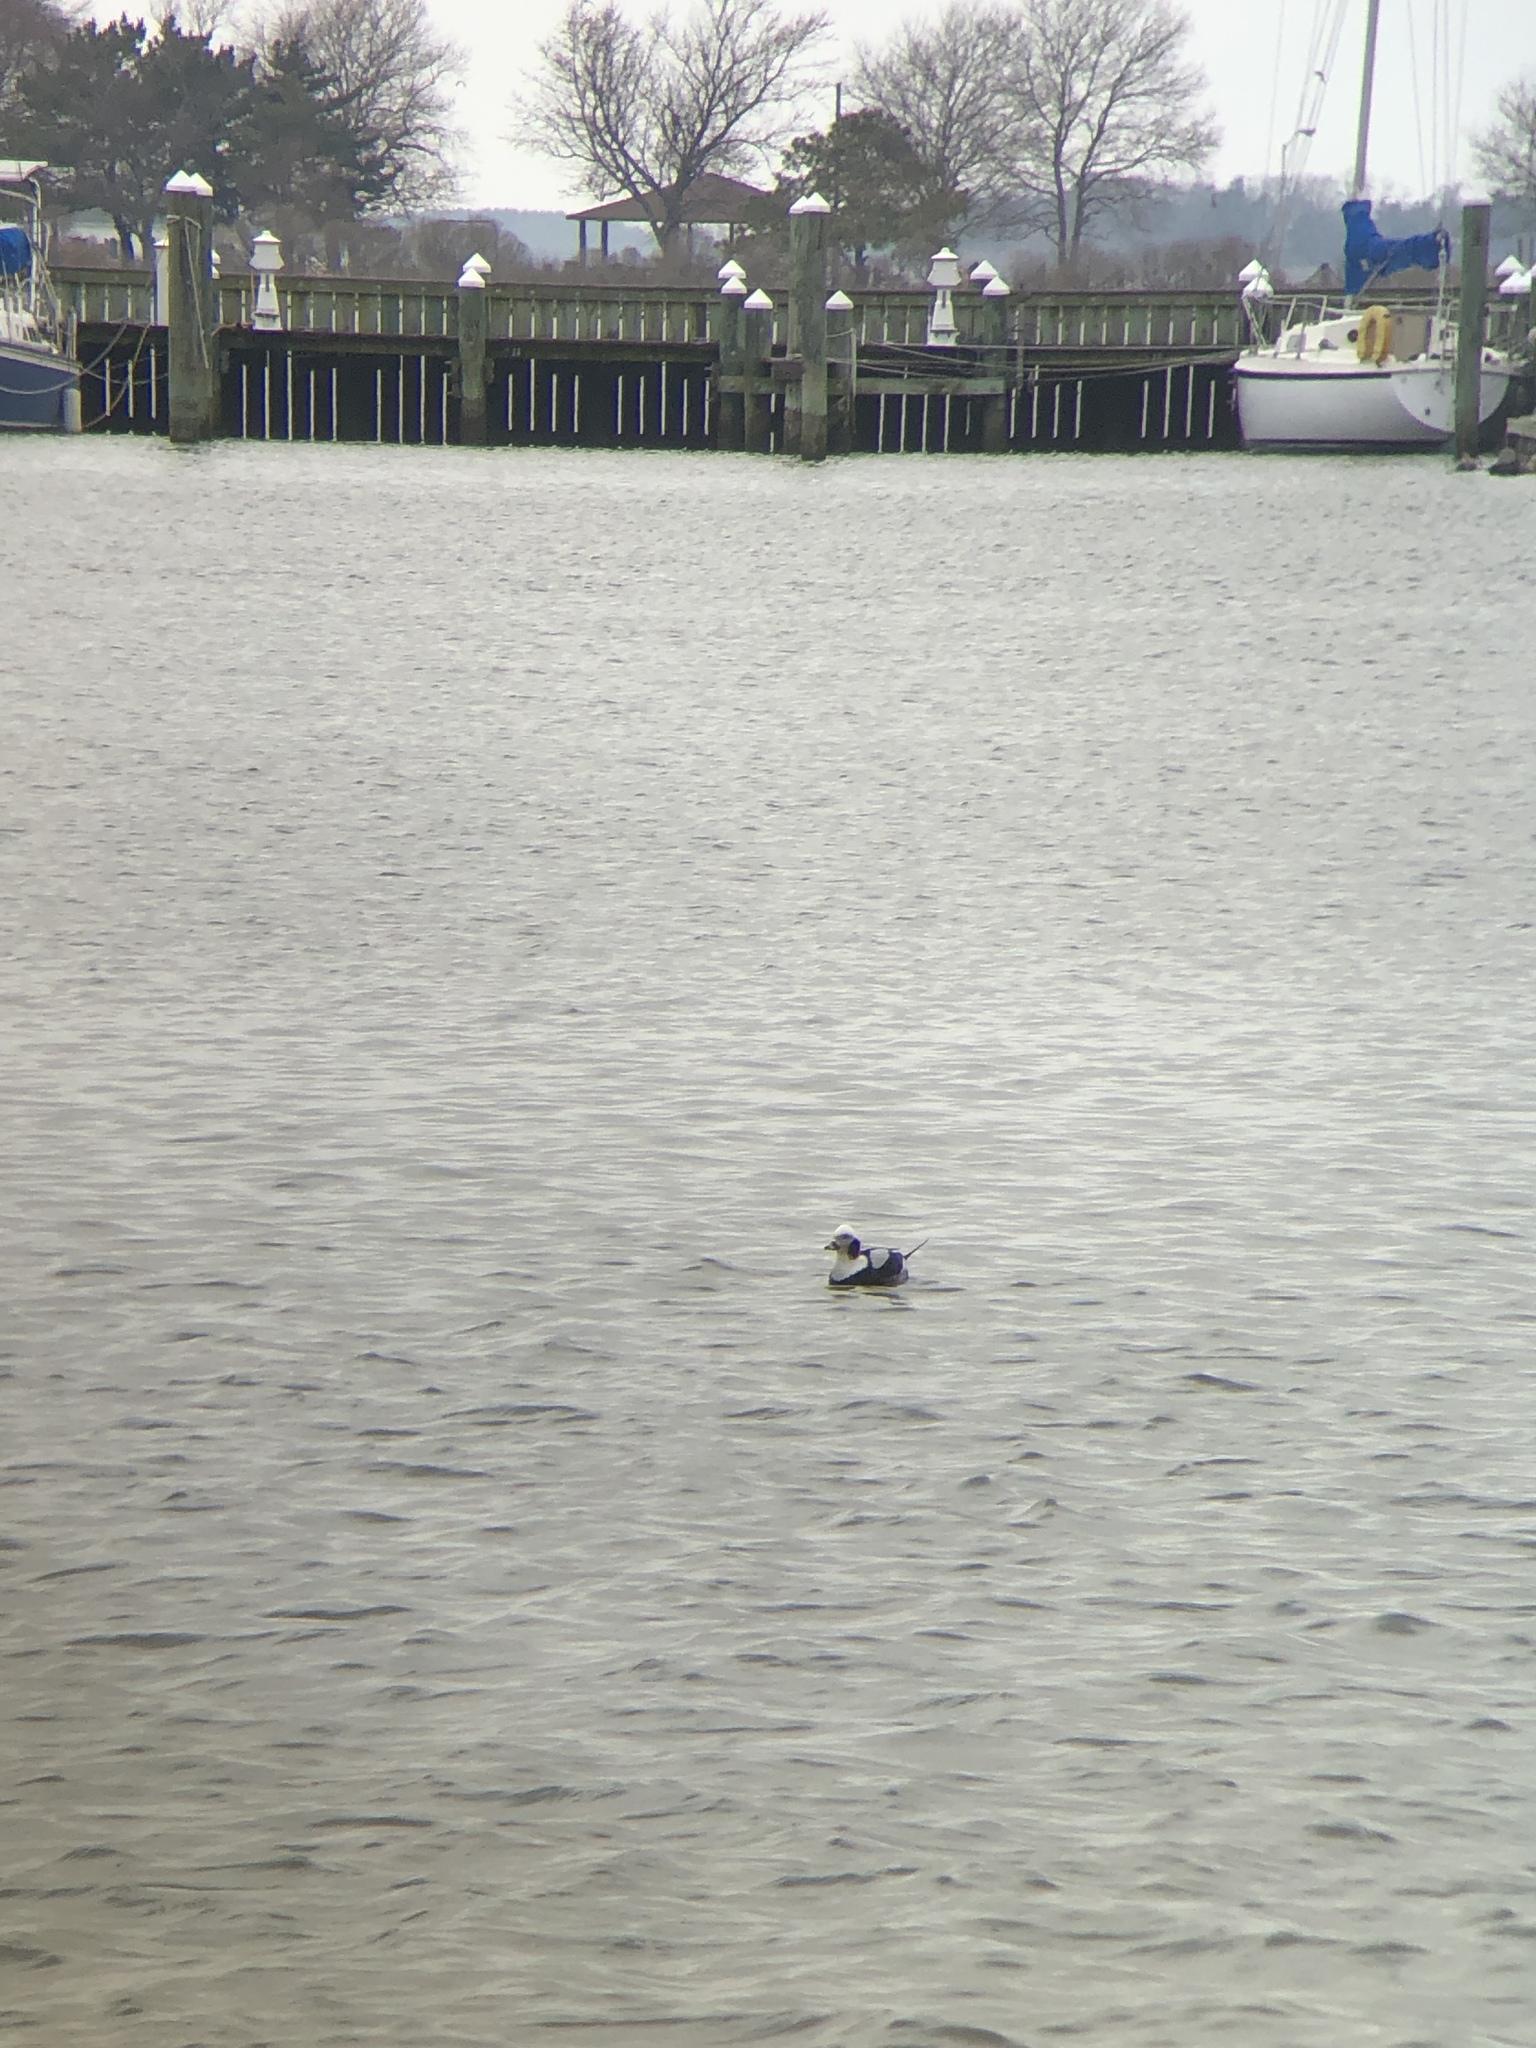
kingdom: Animalia
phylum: Chordata
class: Aves
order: Anseriformes
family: Anatidae
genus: Clangula
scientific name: Clangula hyemalis
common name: Long-tailed duck
